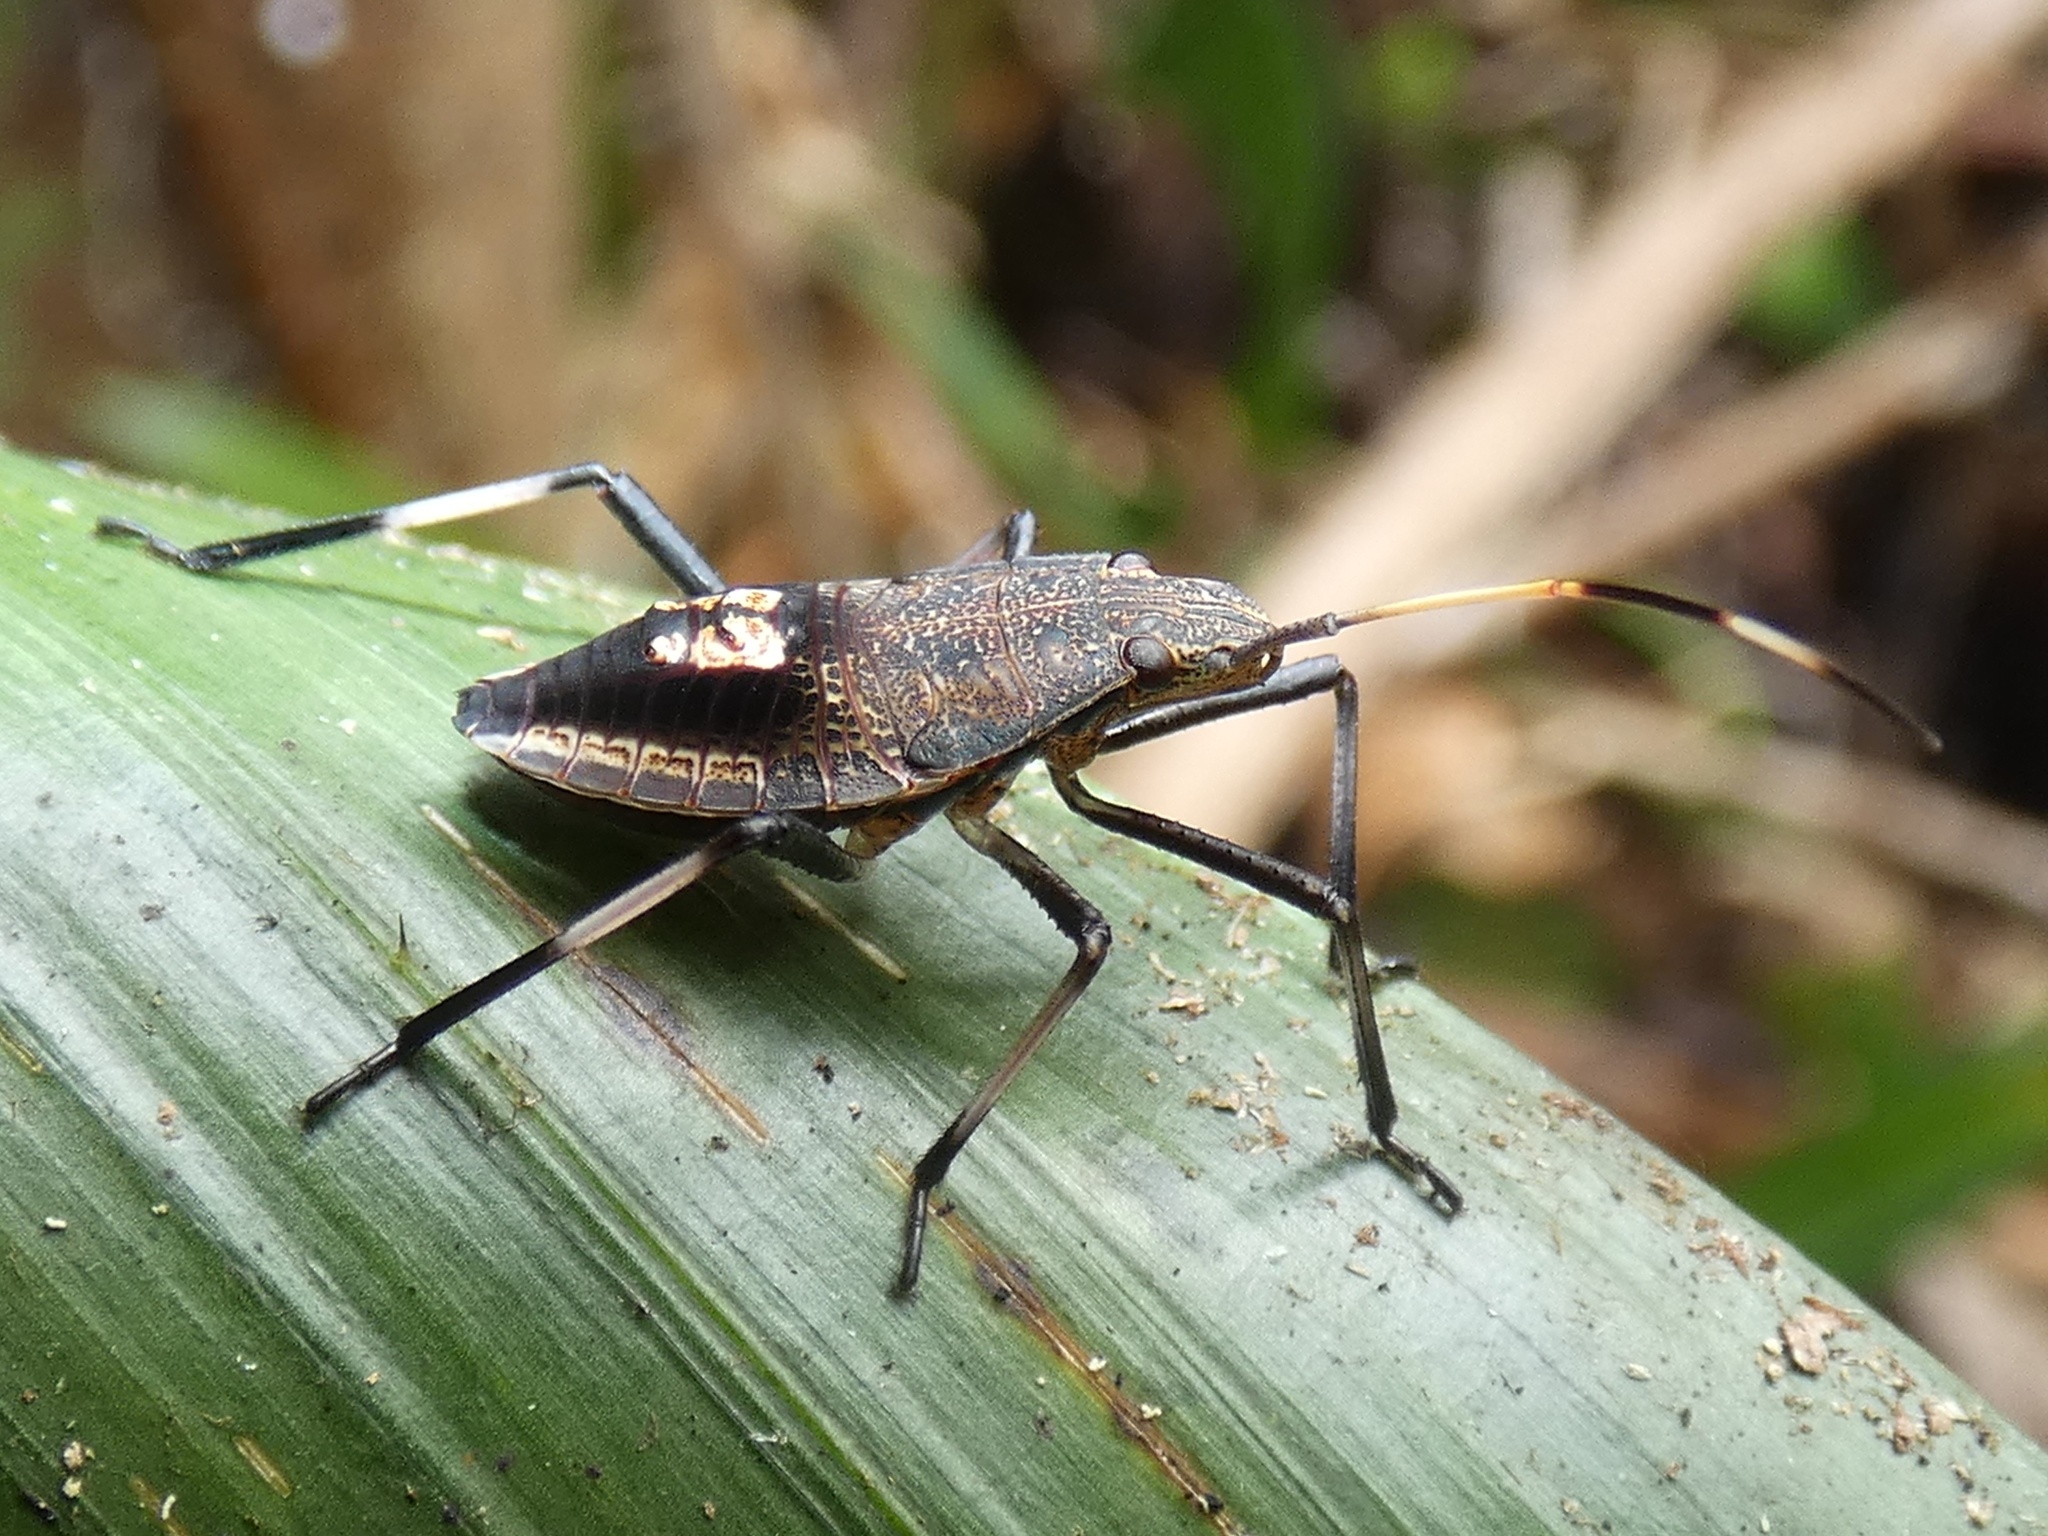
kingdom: Animalia
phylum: Arthropoda
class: Insecta
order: Hemiptera
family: Pentatomidae
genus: Poecilometis
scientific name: Poecilometis
